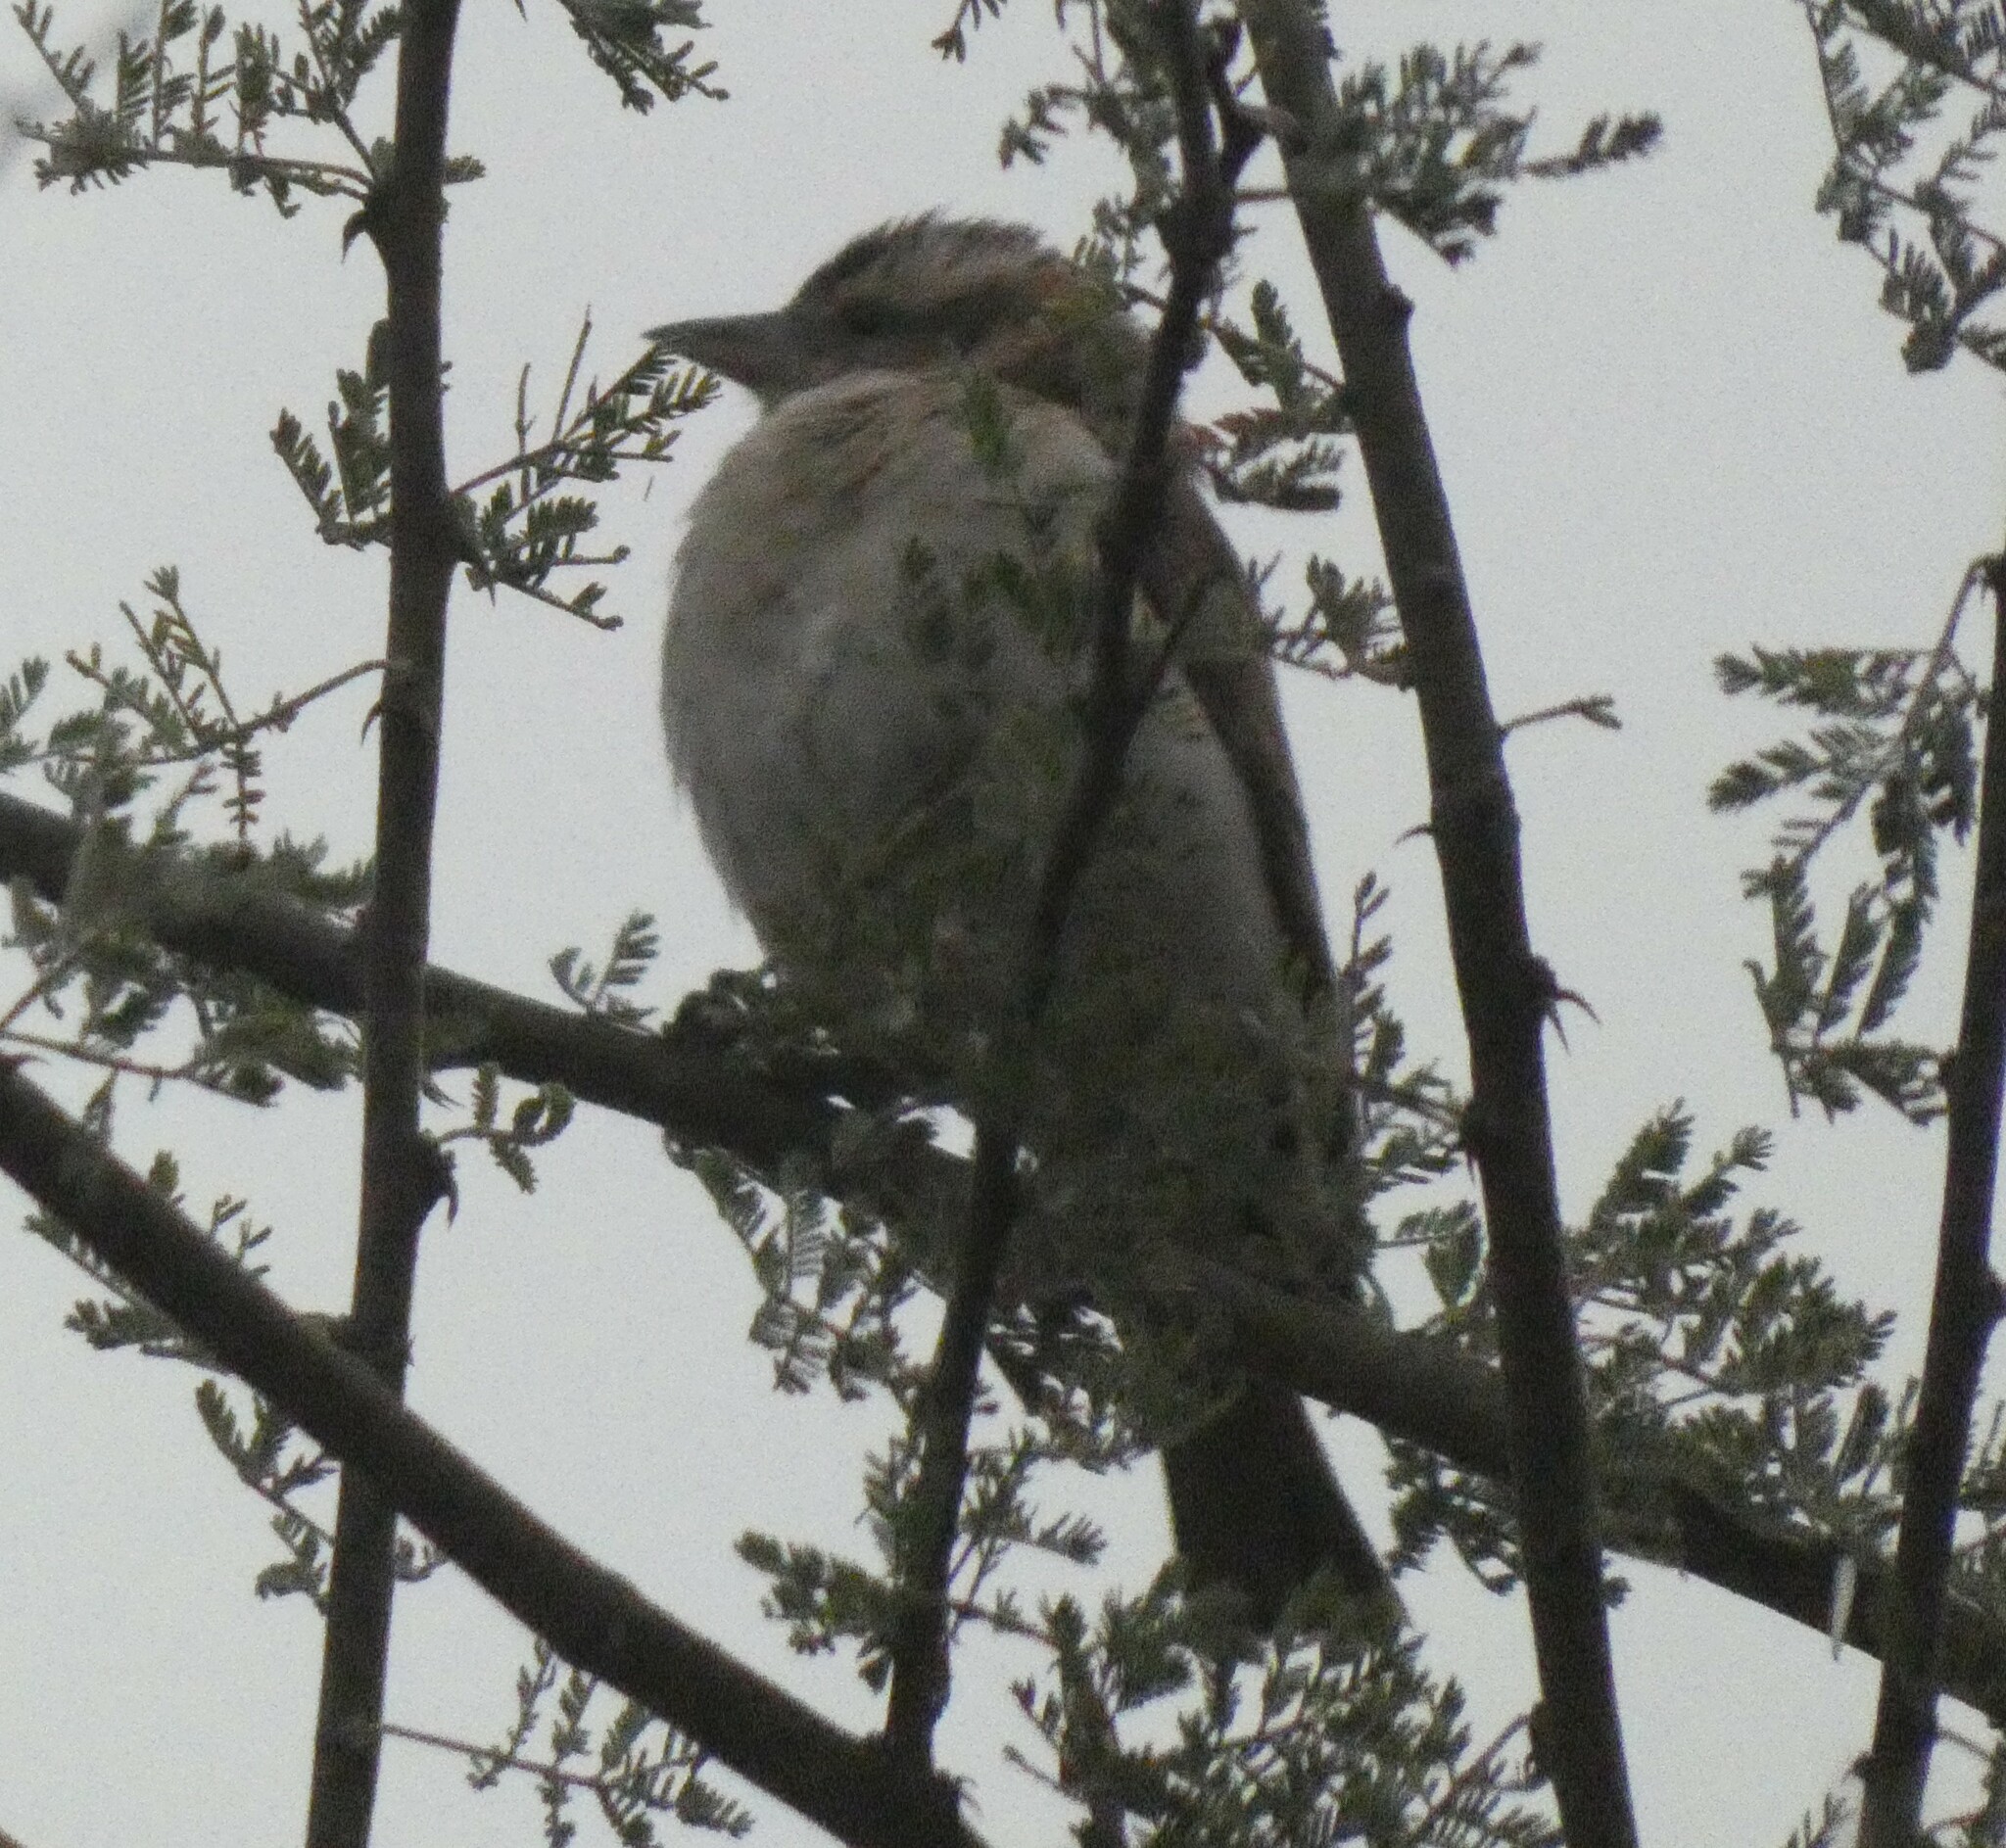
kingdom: Animalia
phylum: Chordata
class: Aves
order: Passeriformes
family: Passeridae
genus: Gymnoris
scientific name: Gymnoris superciliaris
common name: Yellow-throated petronia
